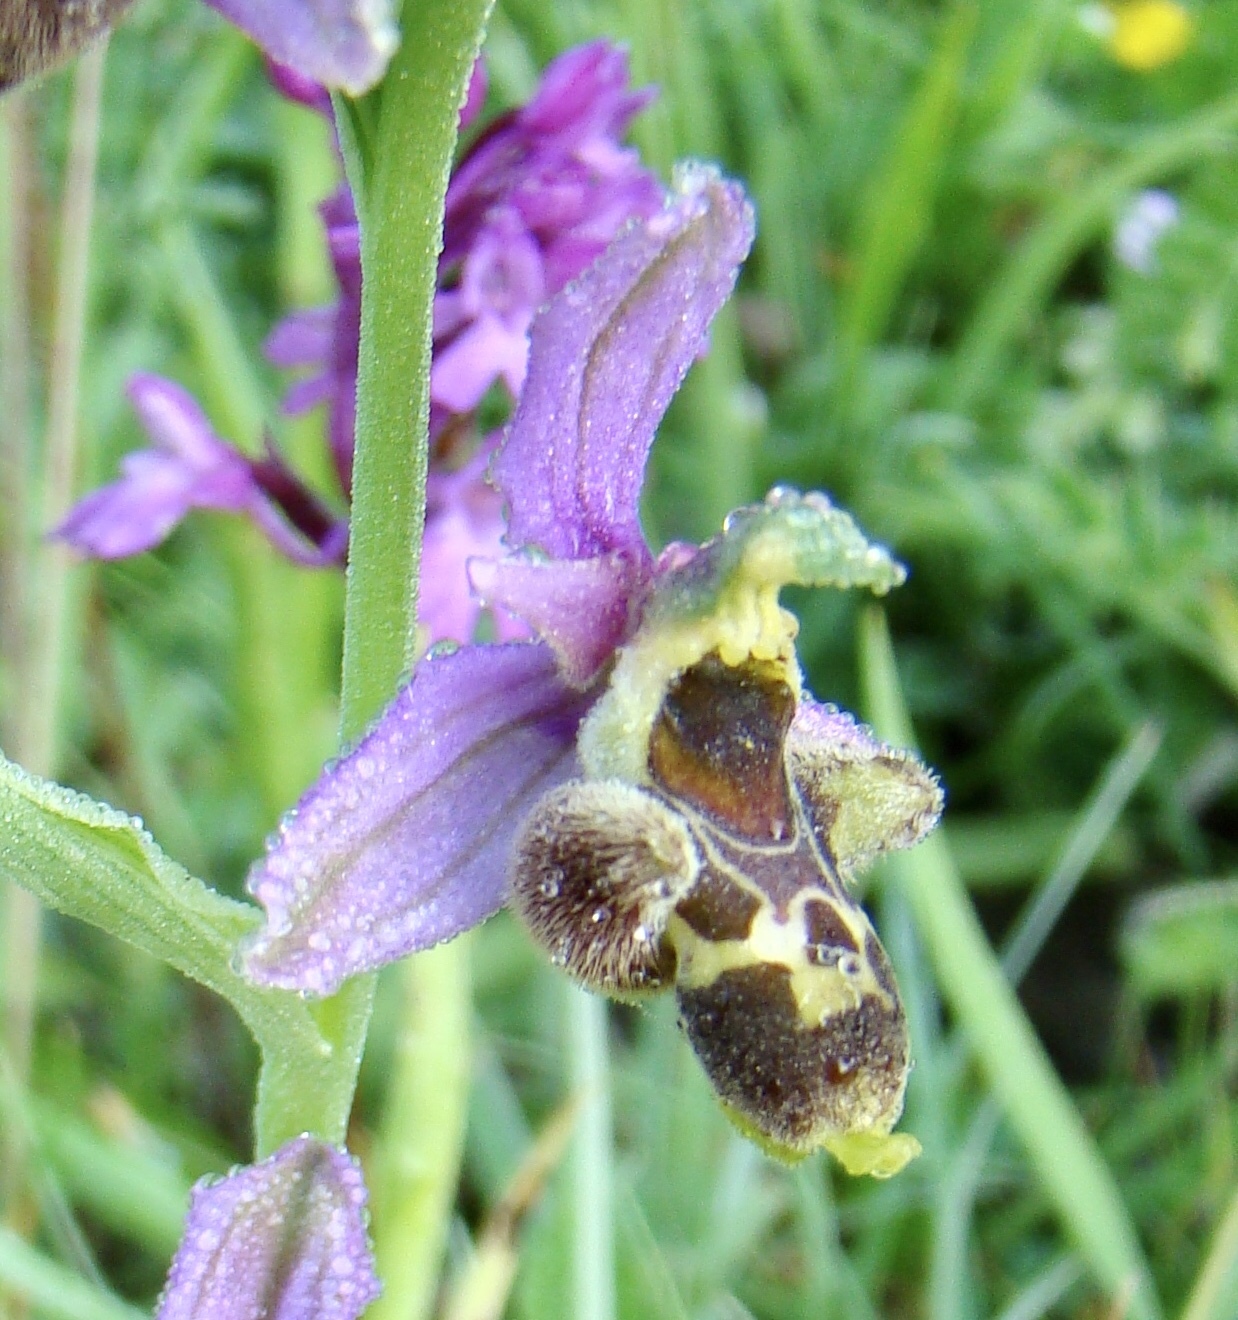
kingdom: Plantae
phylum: Tracheophyta
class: Liliopsida
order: Asparagales
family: Orchidaceae
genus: Ophrys
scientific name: Ophrys albertiana
